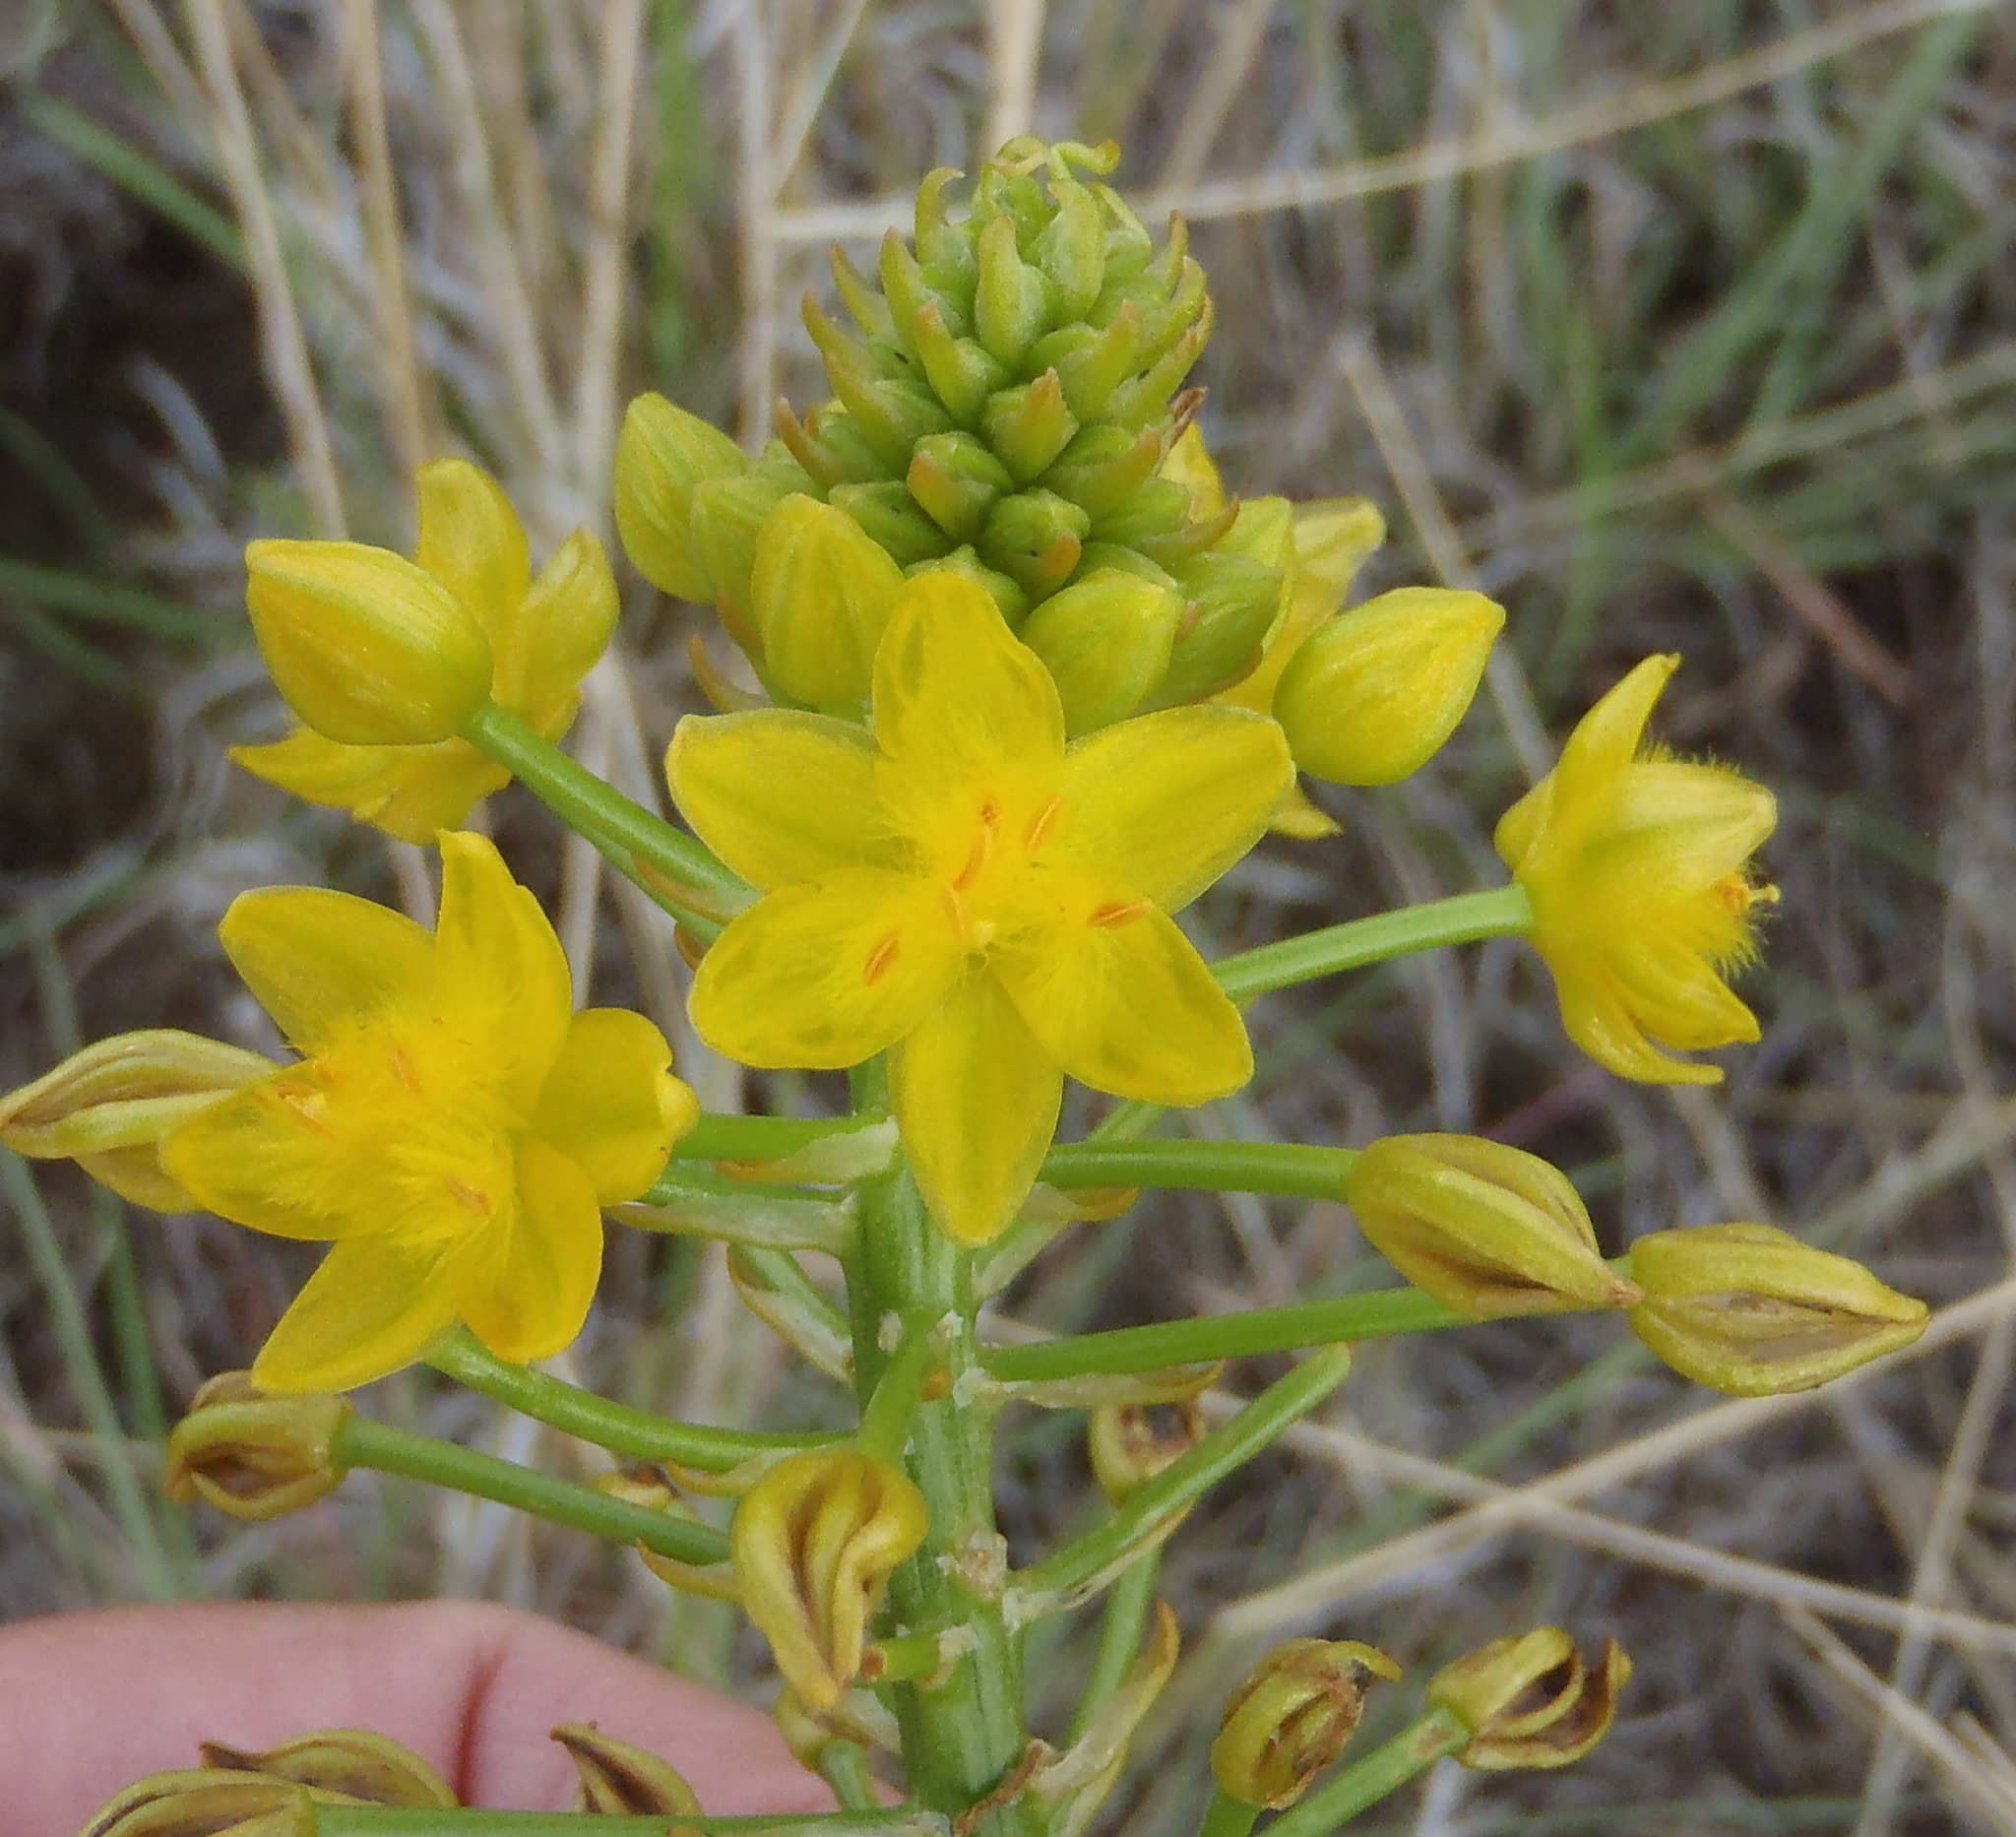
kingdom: Plantae
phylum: Tracheophyta
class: Liliopsida
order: Asparagales
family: Asphodelaceae
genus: Bulbine
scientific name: Bulbine abyssinica
